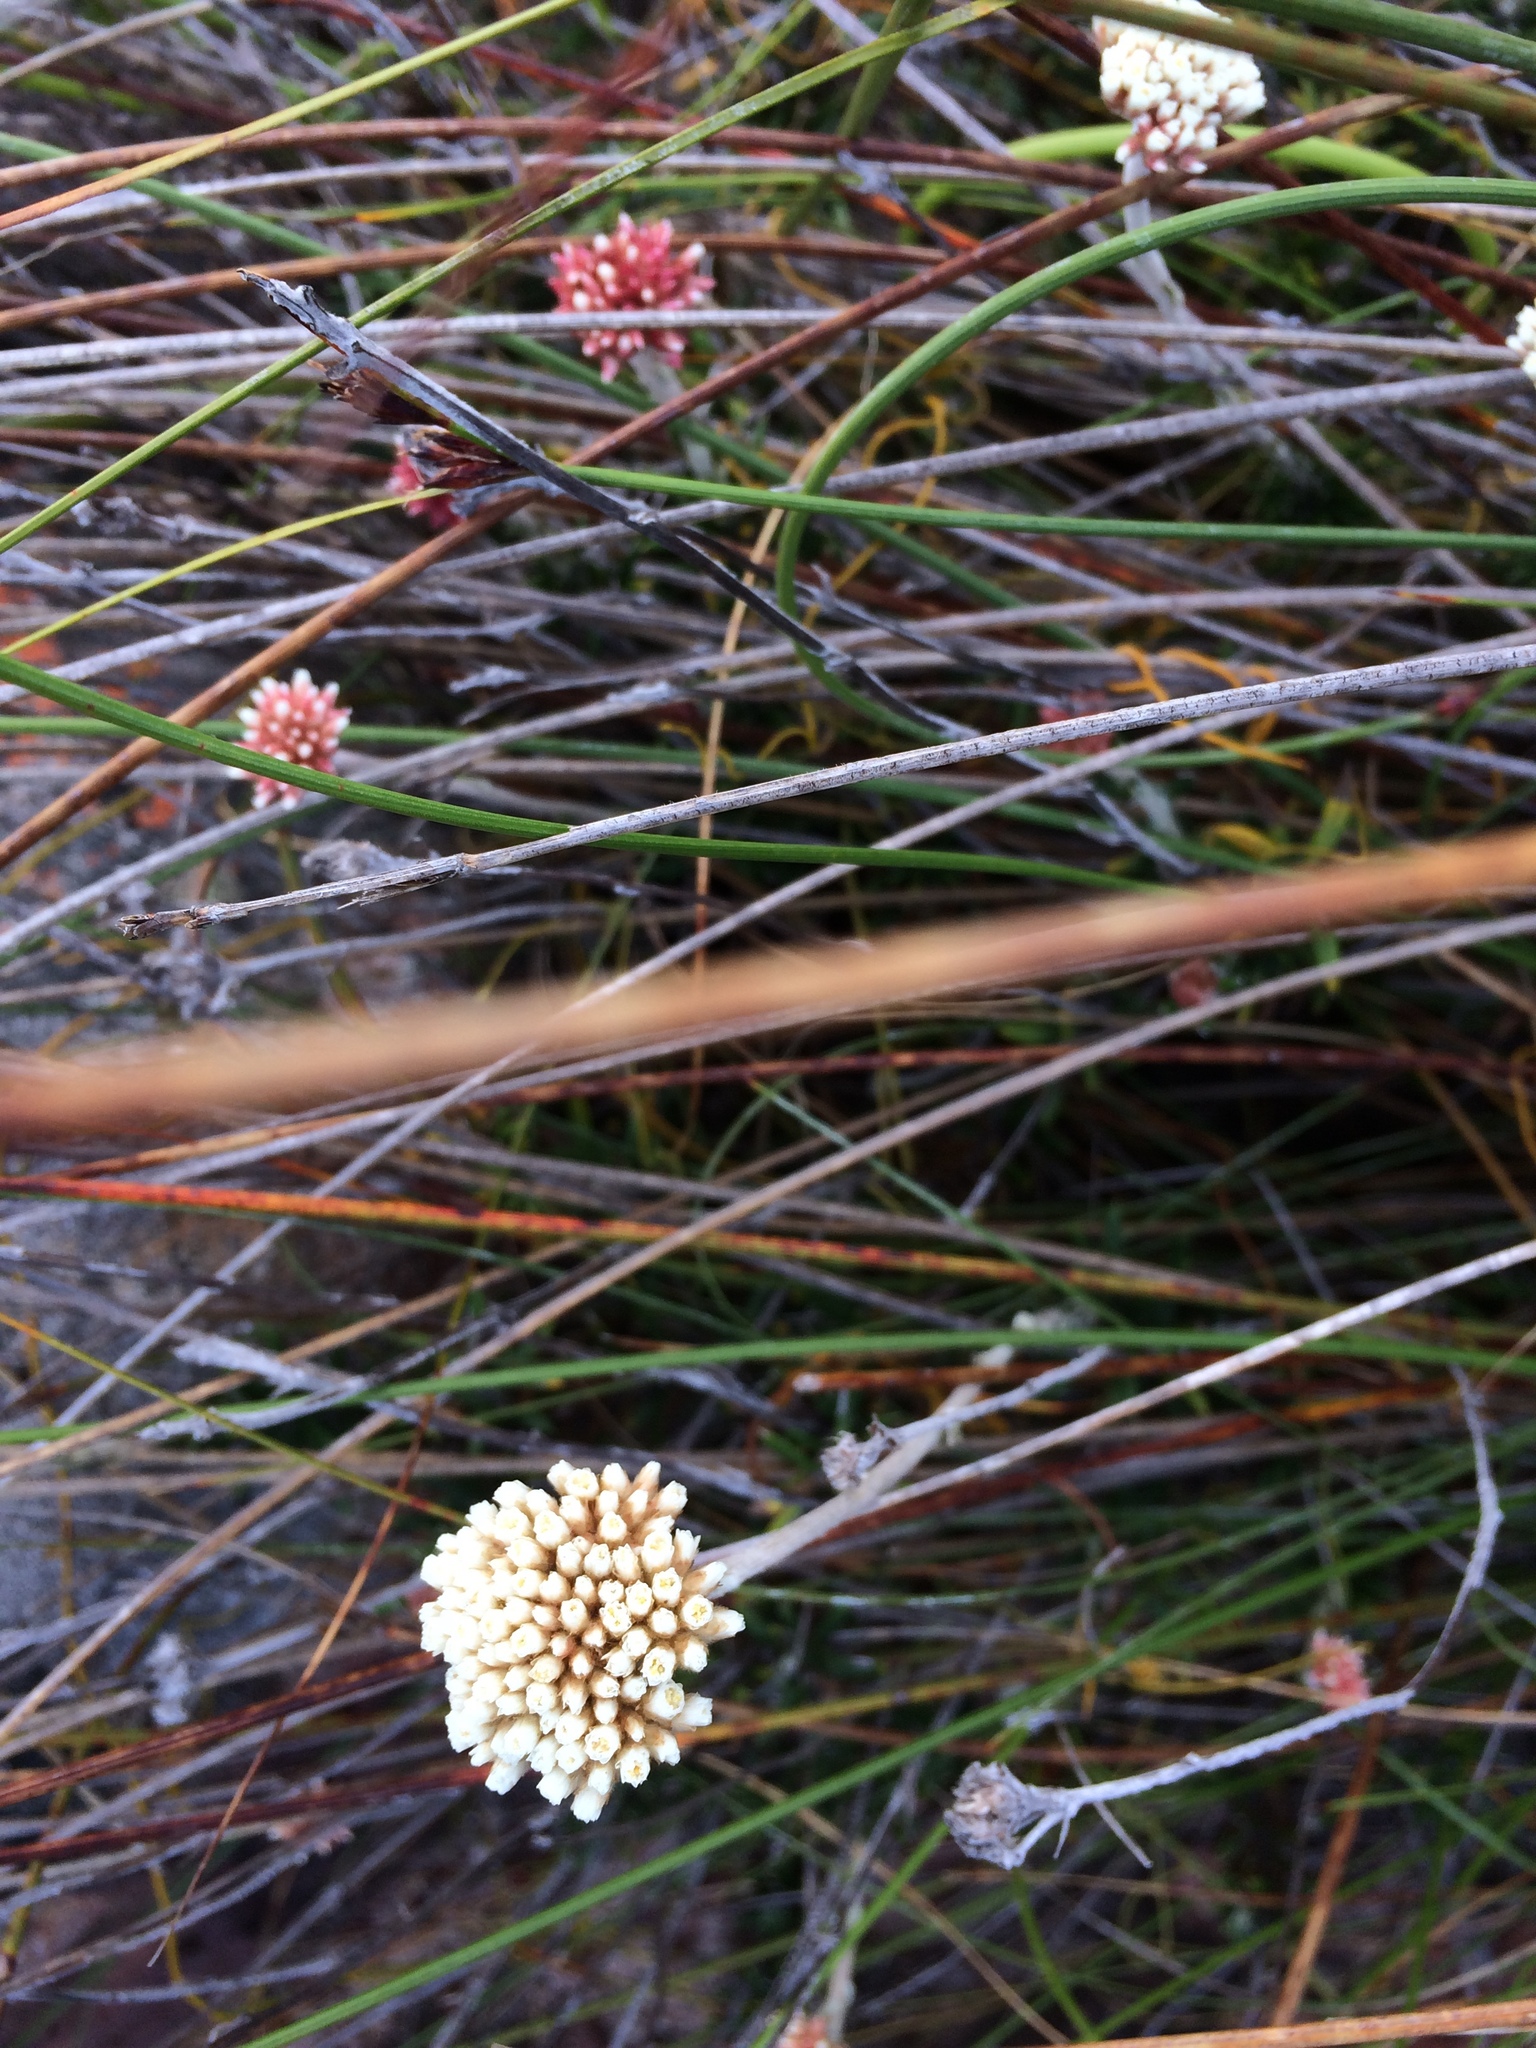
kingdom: Plantae
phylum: Tracheophyta
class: Magnoliopsida
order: Asterales
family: Asteraceae
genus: Anaxeton
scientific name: Anaxeton laeve
